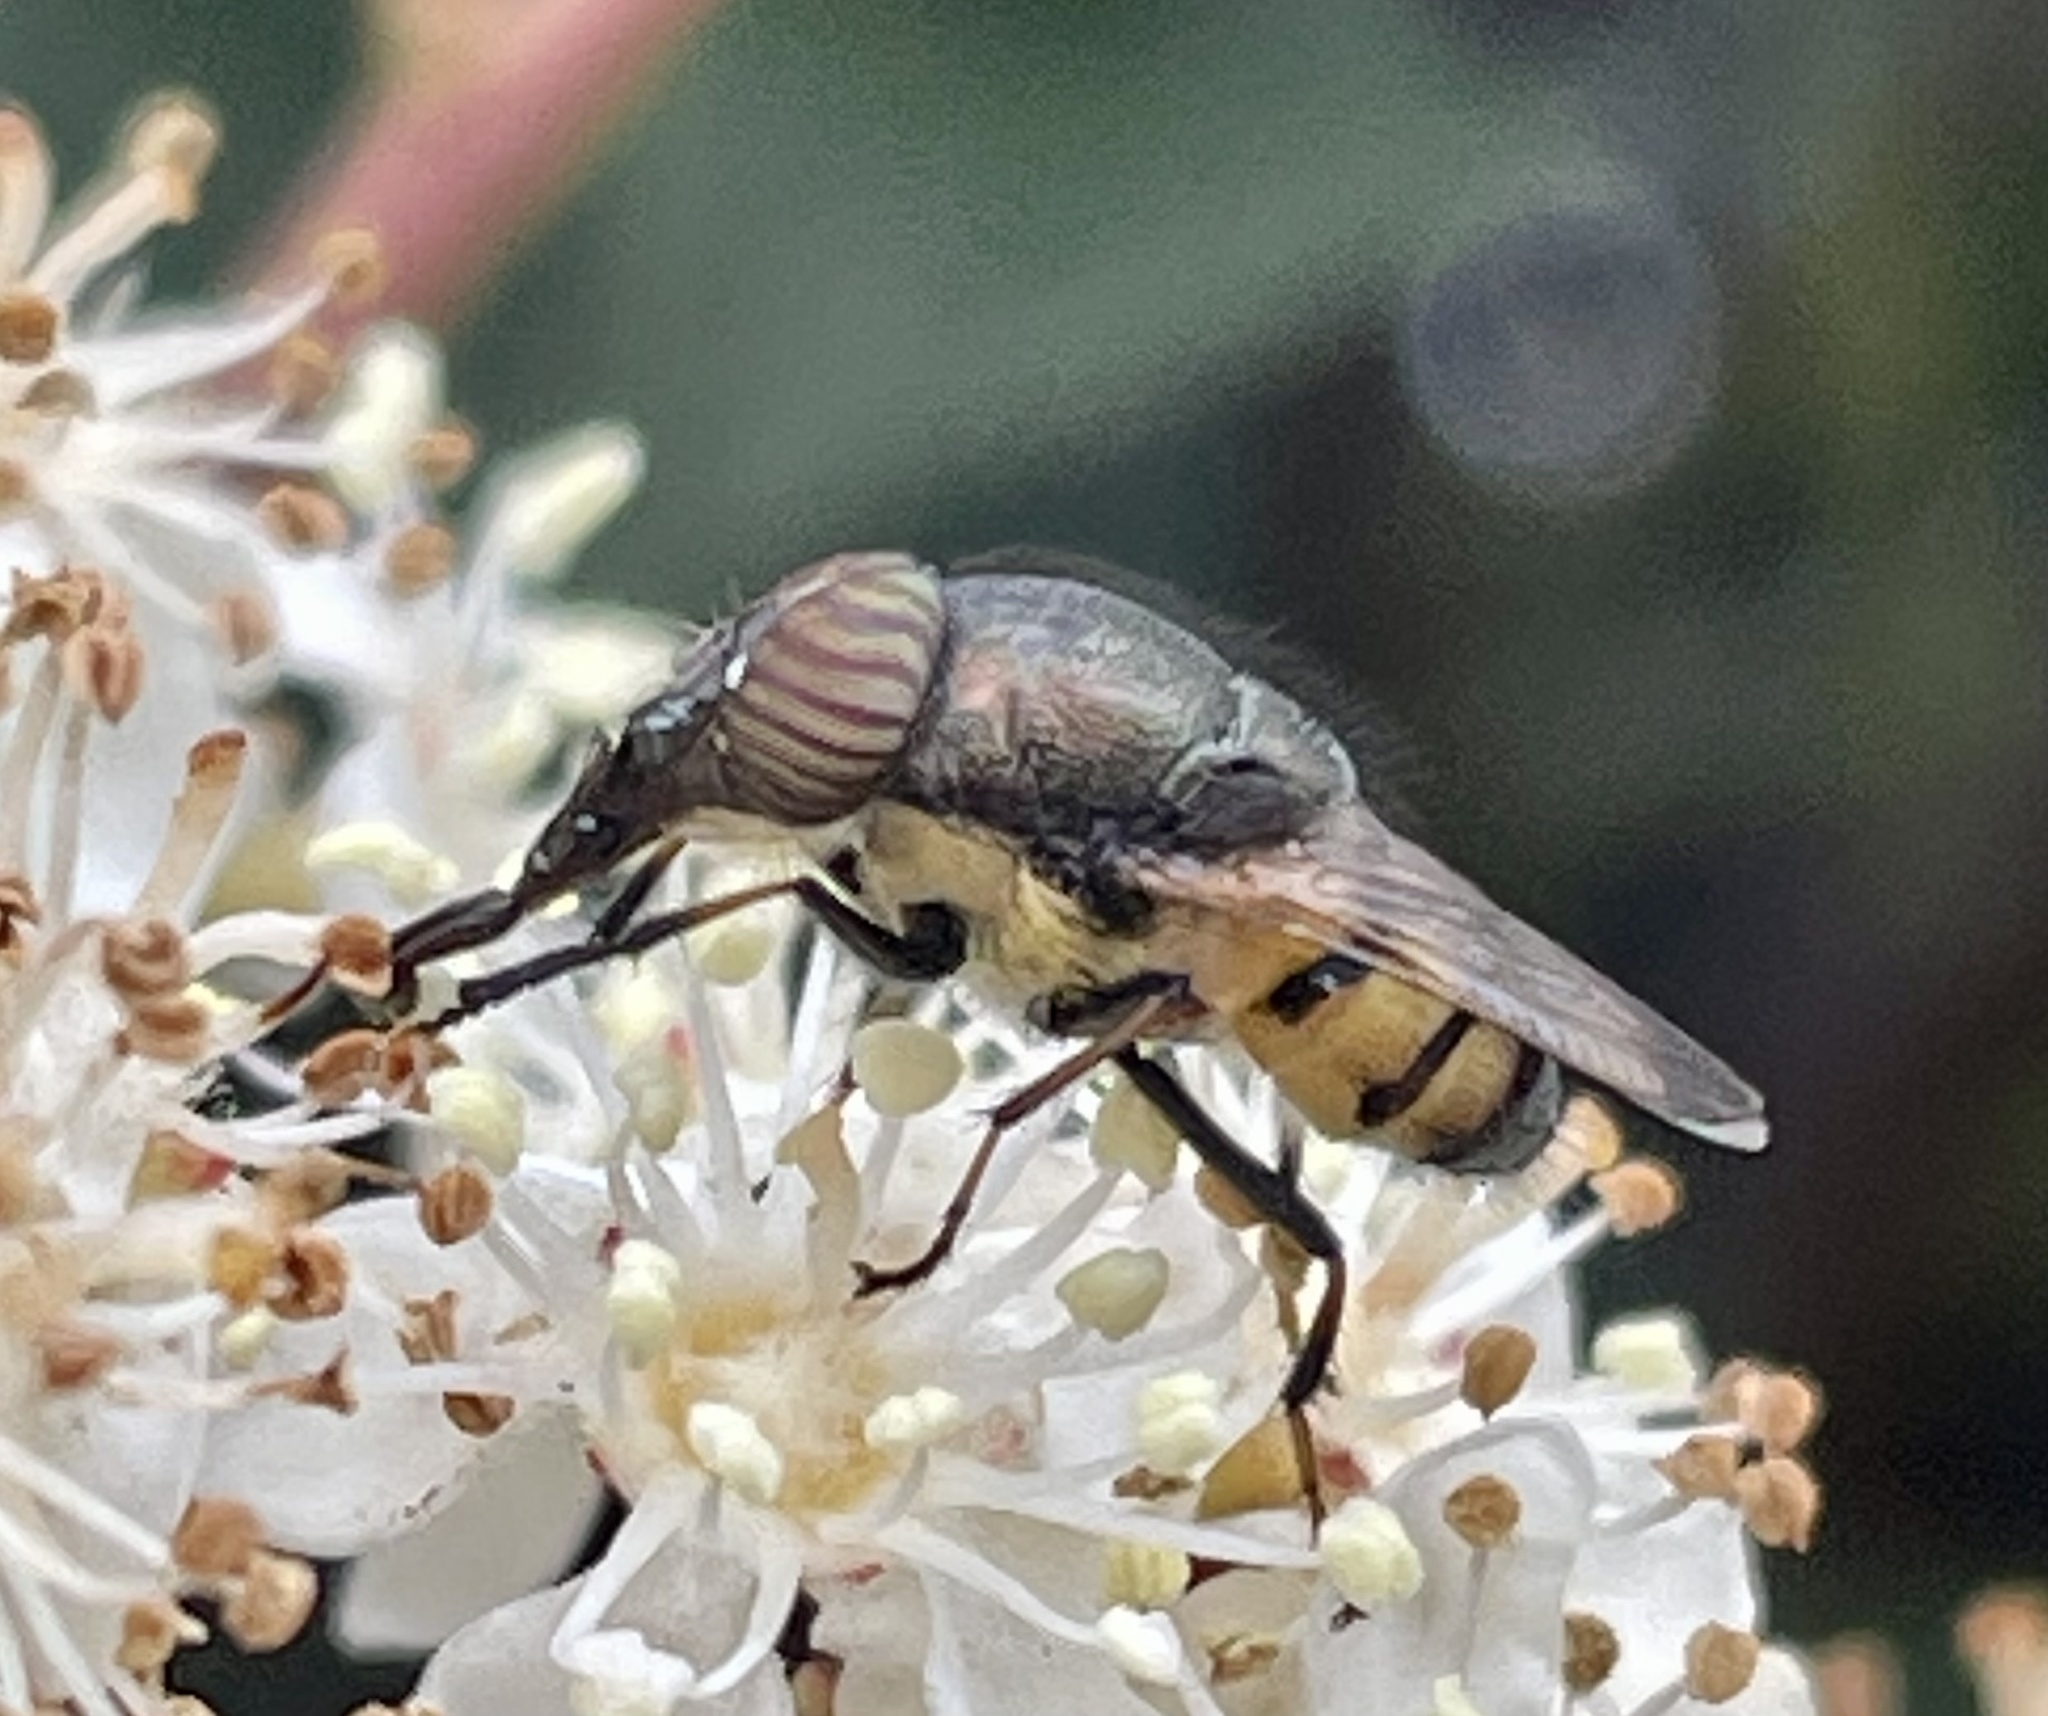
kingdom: Animalia
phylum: Arthropoda
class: Insecta
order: Diptera
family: Calliphoridae
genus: Stomorhina
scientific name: Stomorhina discolor
